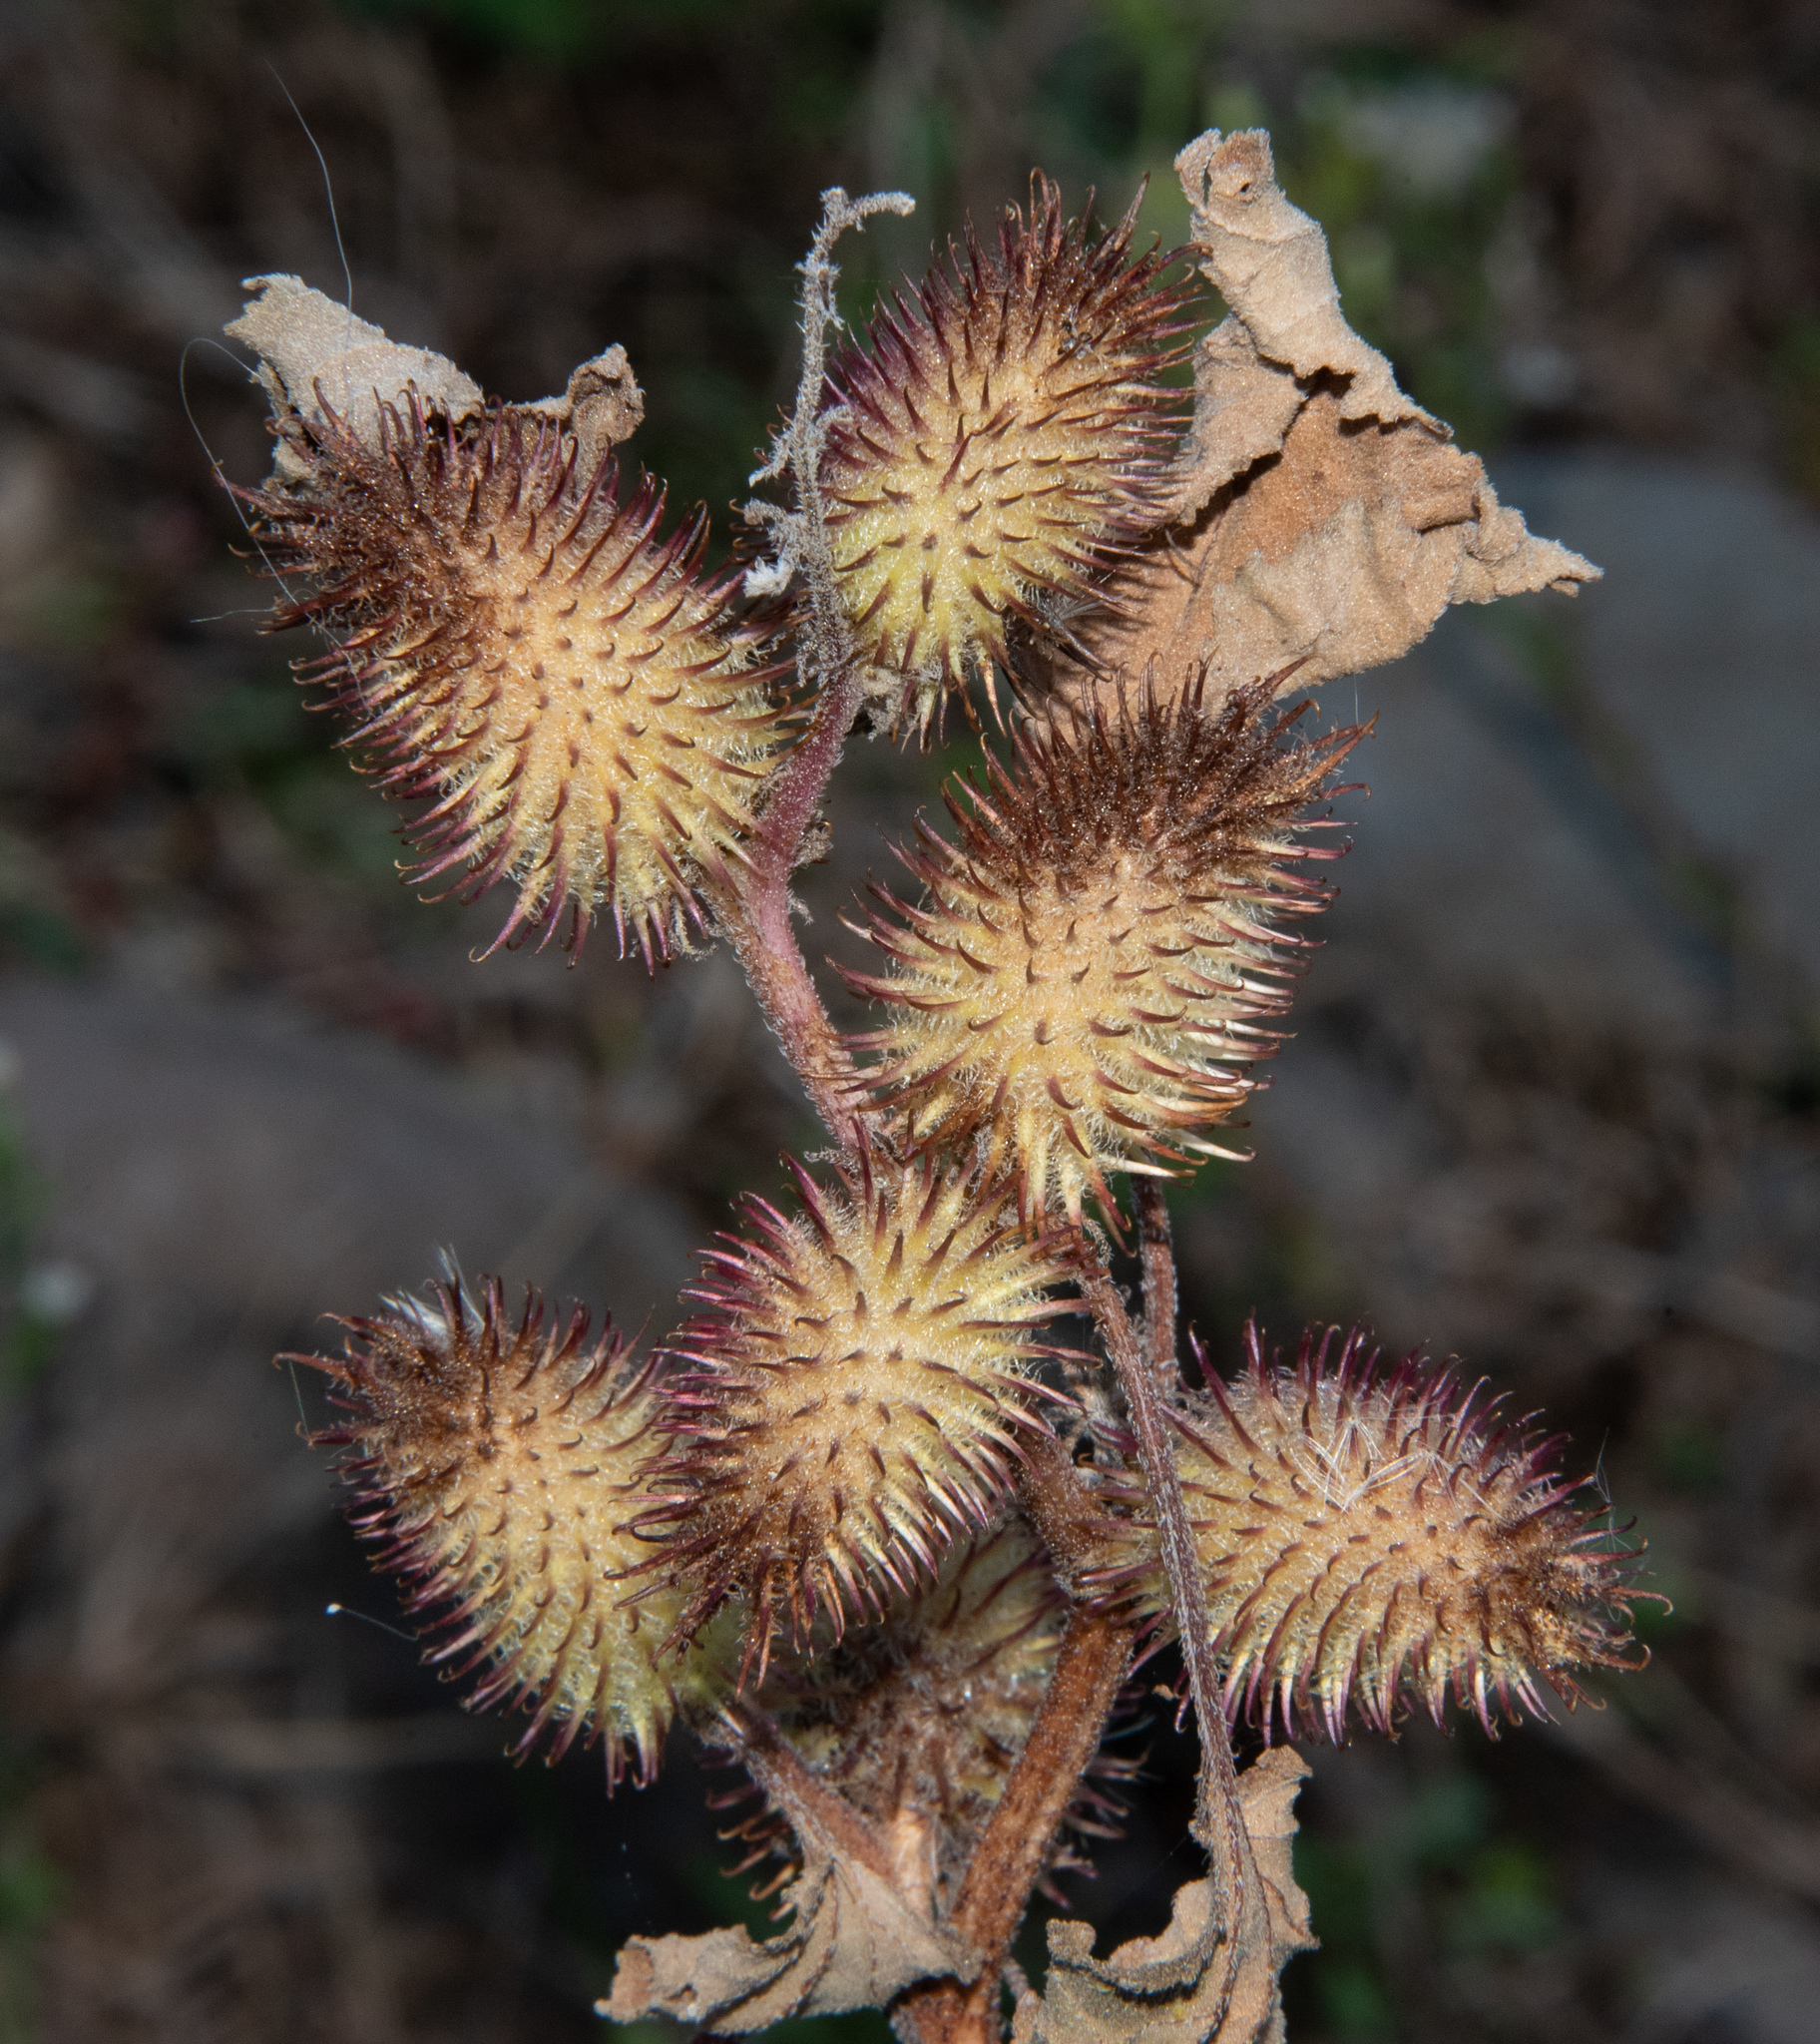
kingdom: Plantae
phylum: Tracheophyta
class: Magnoliopsida
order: Asterales
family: Asteraceae
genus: Xanthium
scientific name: Xanthium orientale
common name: Californian burr
